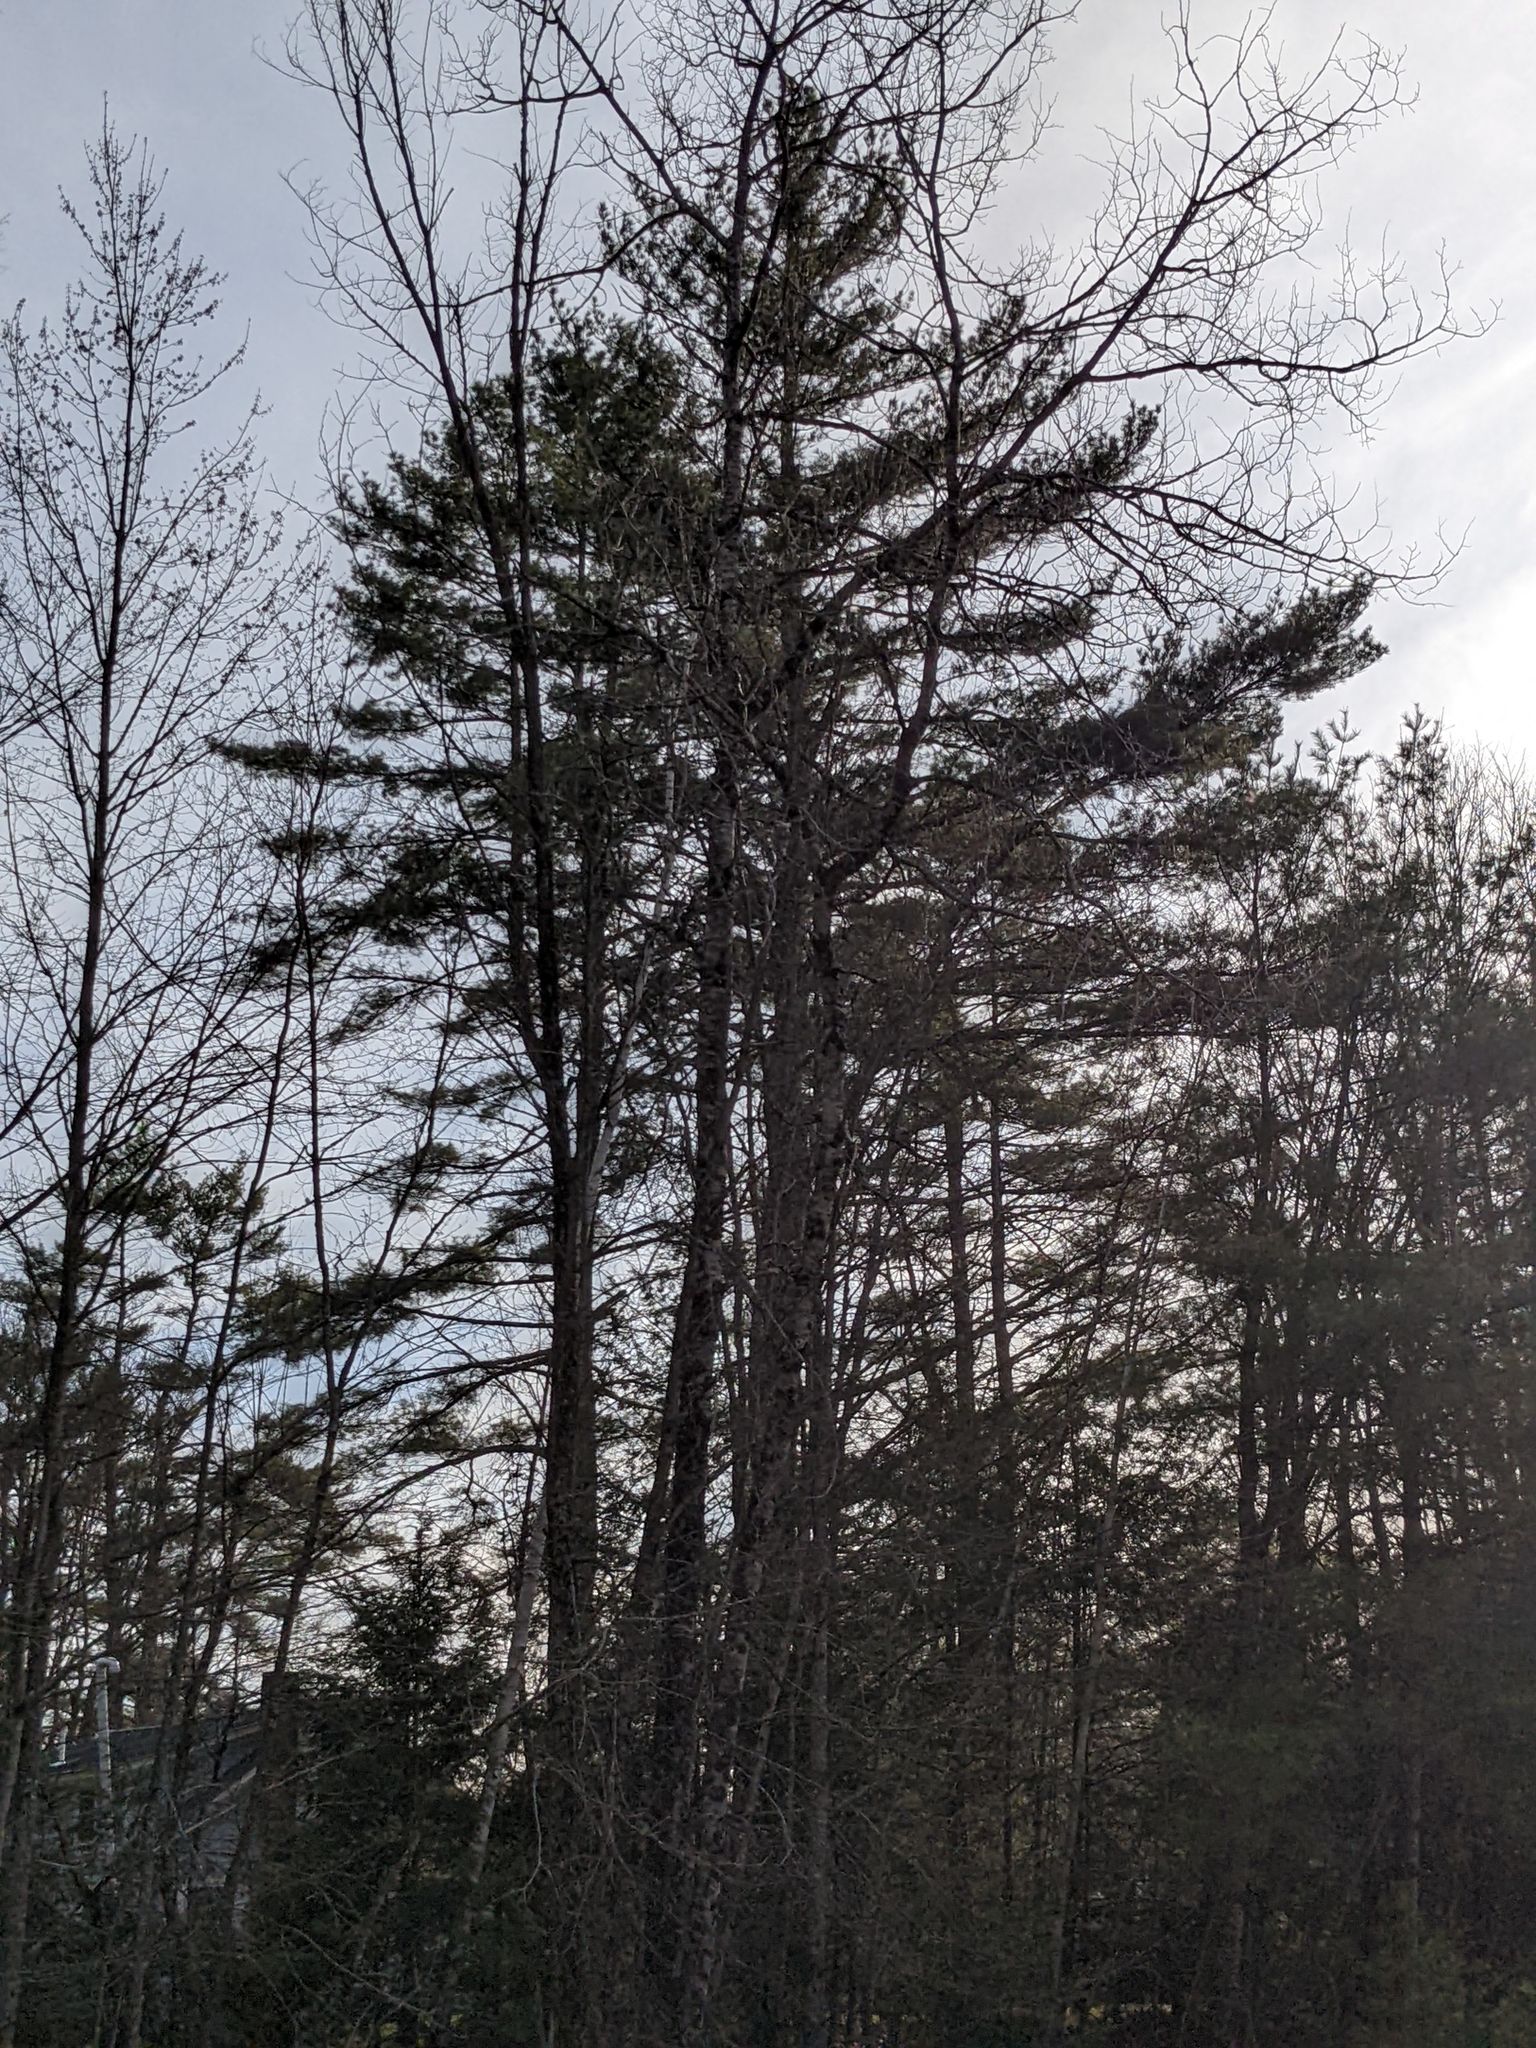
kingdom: Plantae
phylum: Tracheophyta
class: Pinopsida
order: Pinales
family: Pinaceae
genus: Pinus
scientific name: Pinus strobus
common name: Weymouth pine
